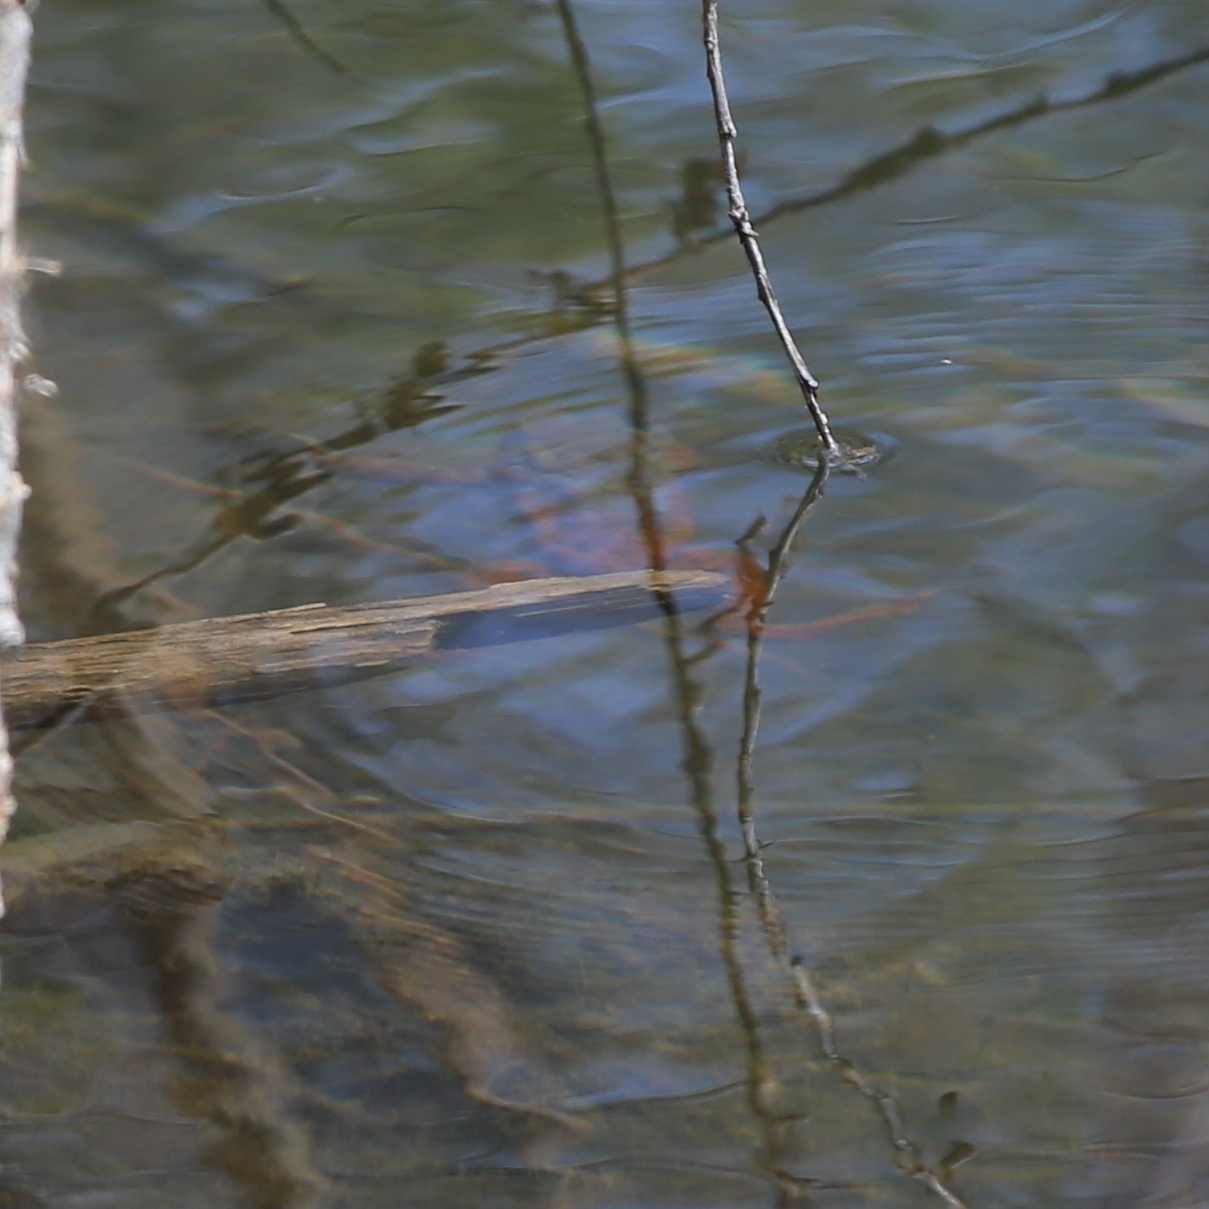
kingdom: Animalia
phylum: Chordata
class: Amphibia
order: Anura
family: Bufonidae
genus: Bufo
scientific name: Bufo bufo
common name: Common toad
